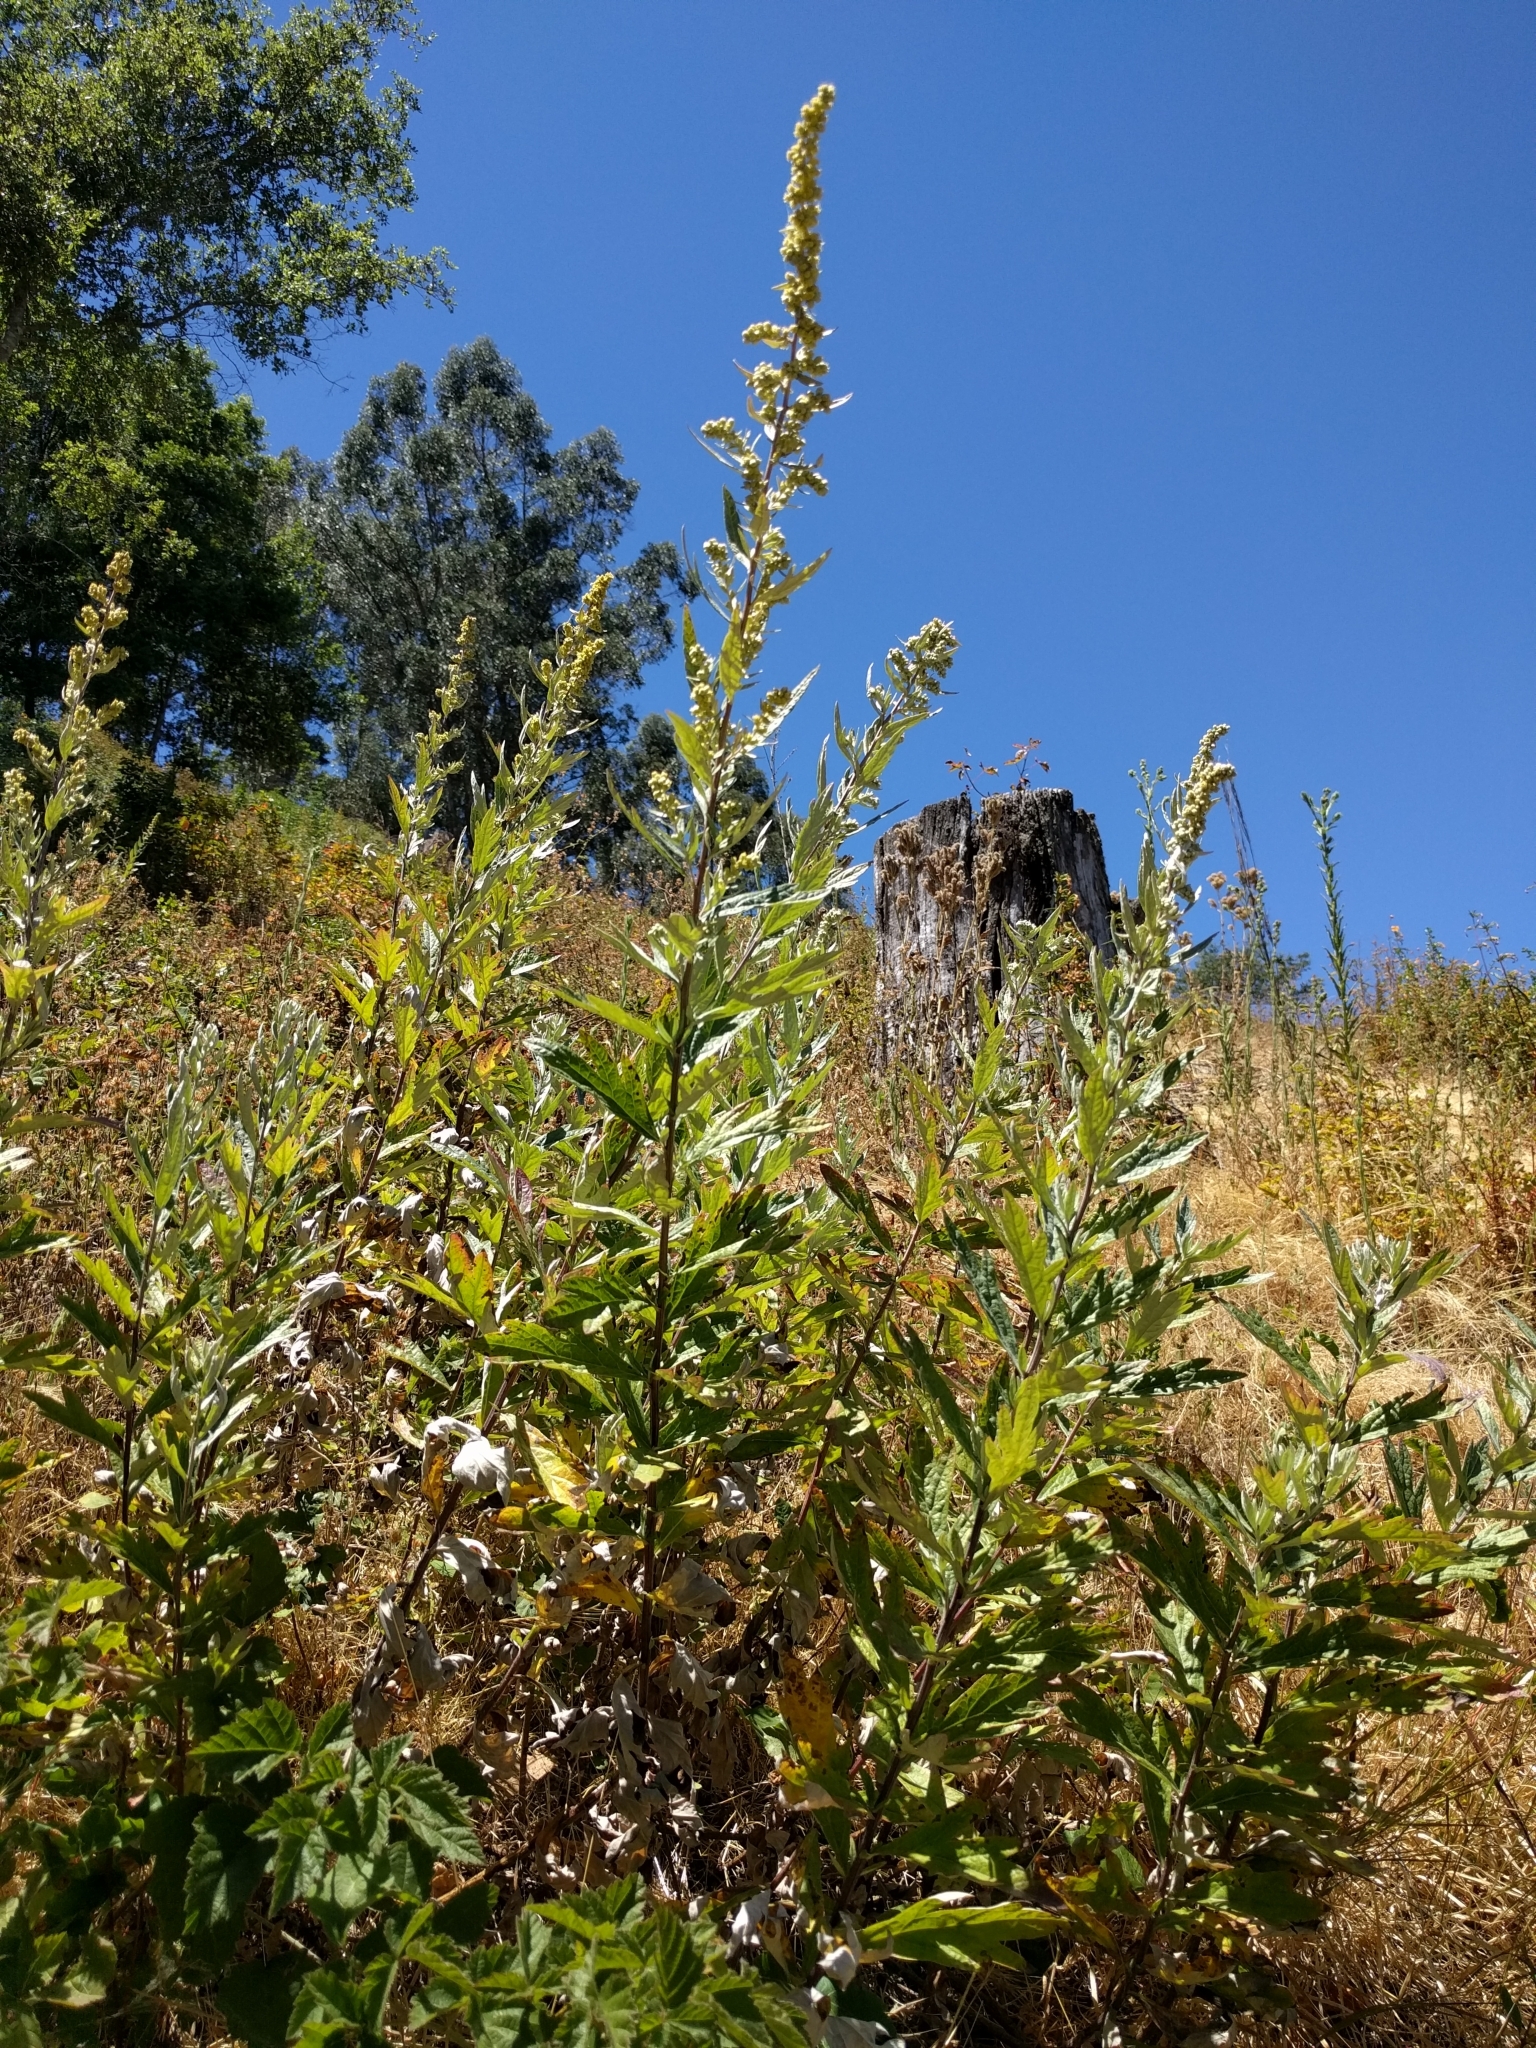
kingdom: Plantae
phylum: Tracheophyta
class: Magnoliopsida
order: Asterales
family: Asteraceae
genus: Artemisia
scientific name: Artemisia douglasiana
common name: Northwest mugwort
